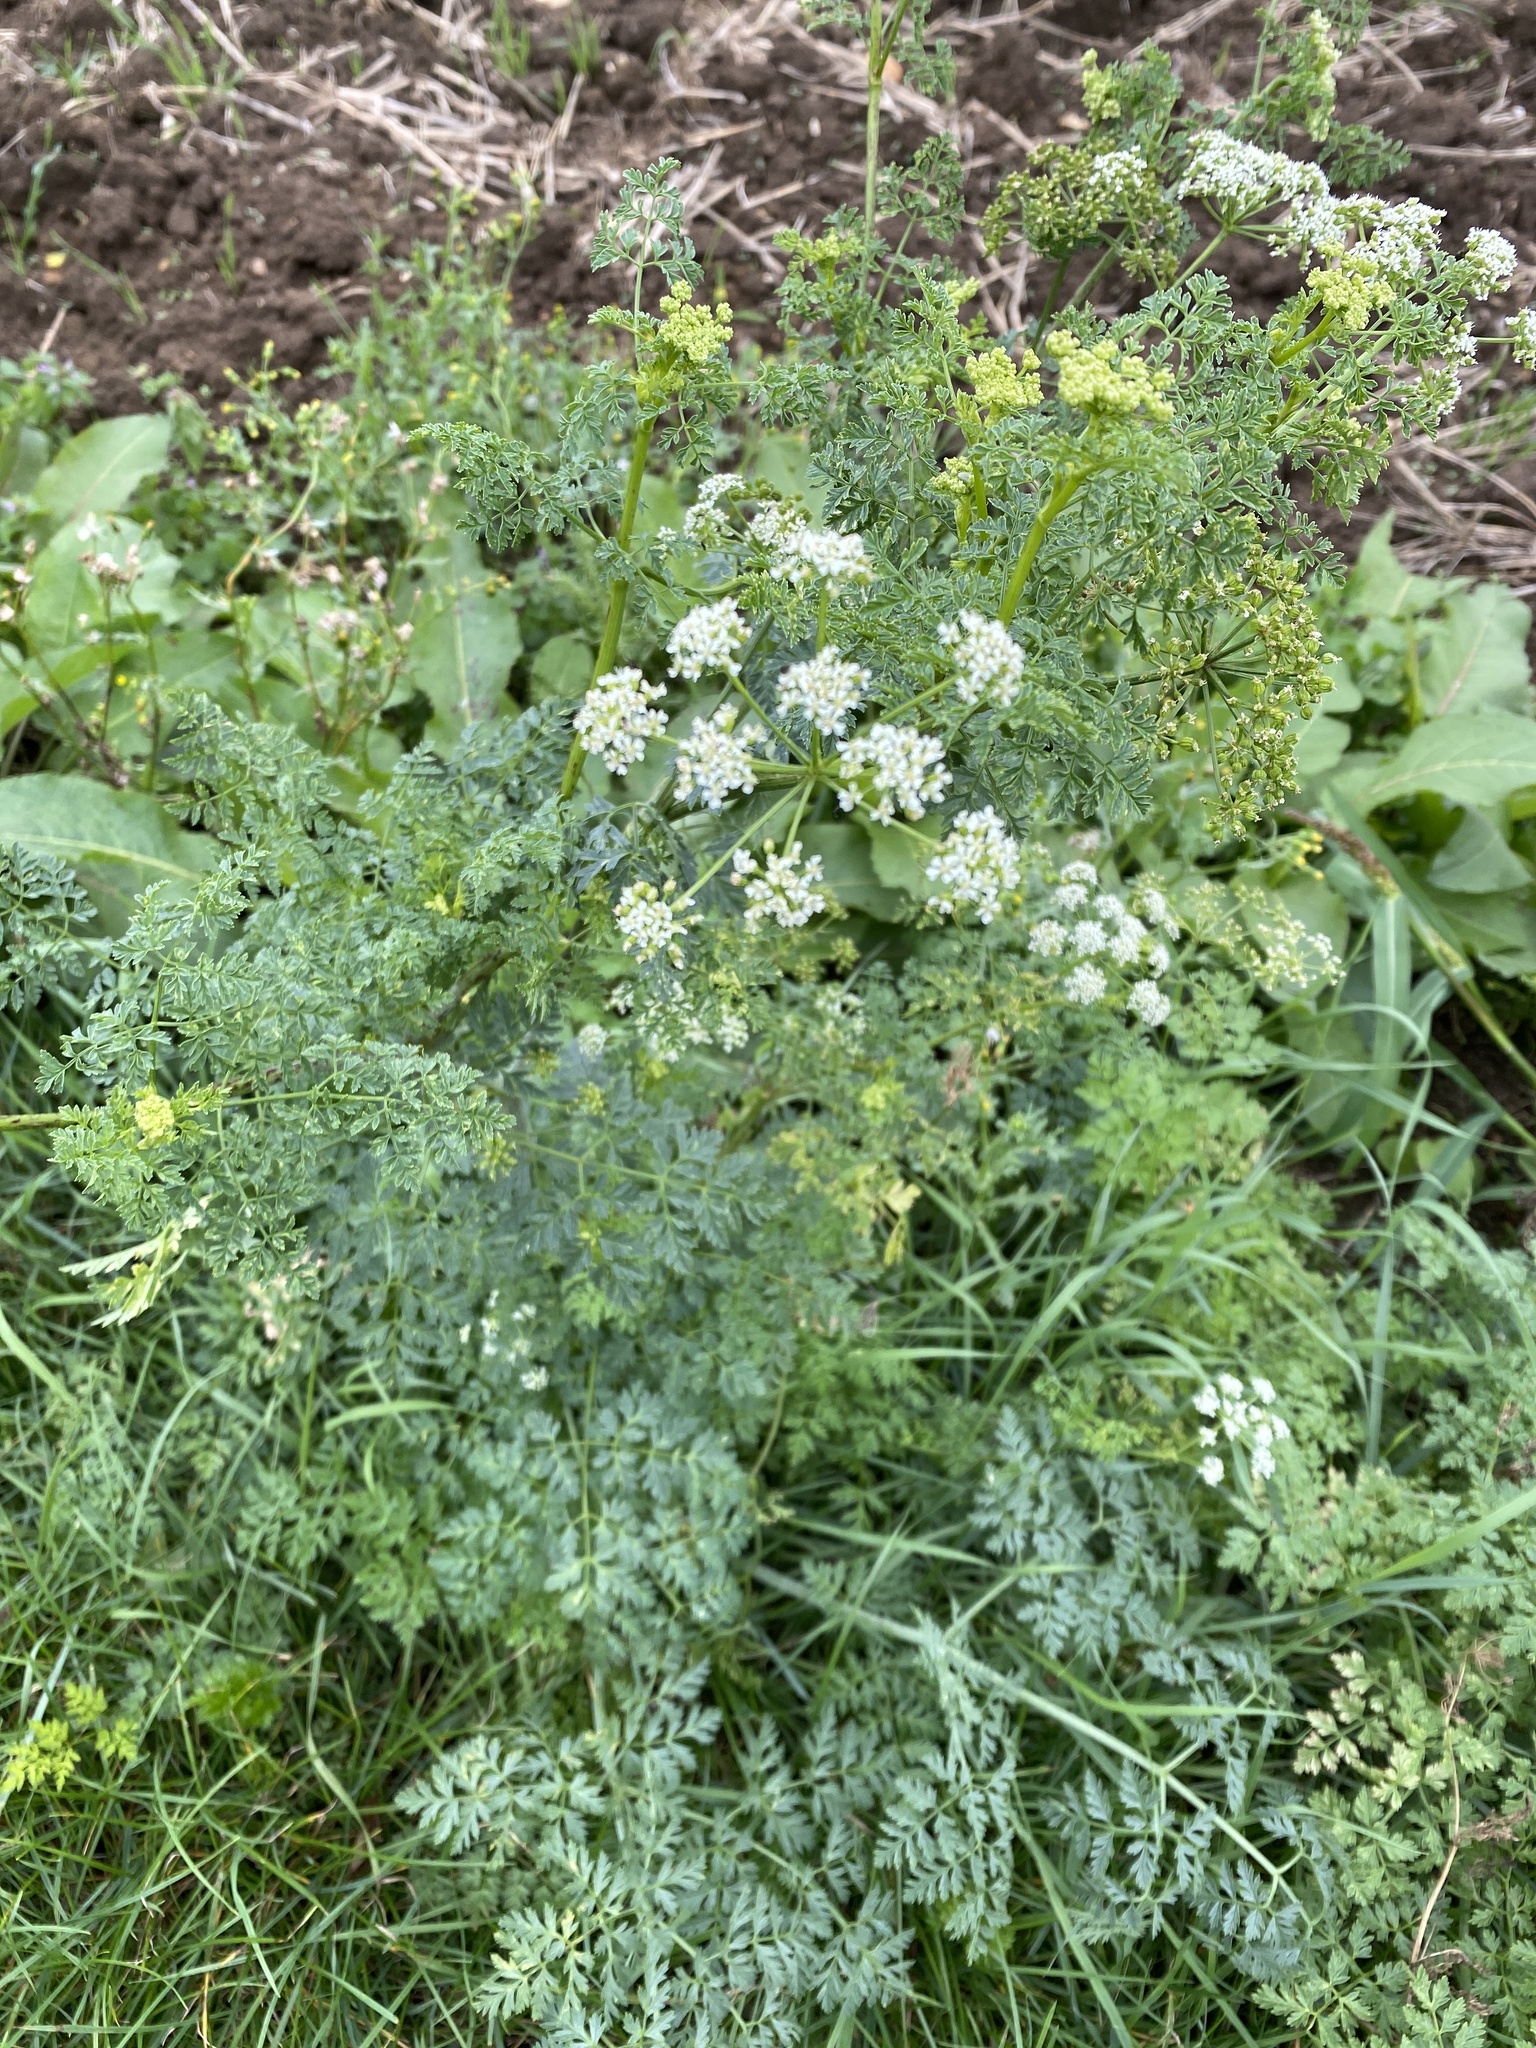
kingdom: Plantae
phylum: Tracheophyta
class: Magnoliopsida
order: Apiales
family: Apiaceae
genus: Conium
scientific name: Conium maculatum
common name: Hemlock
